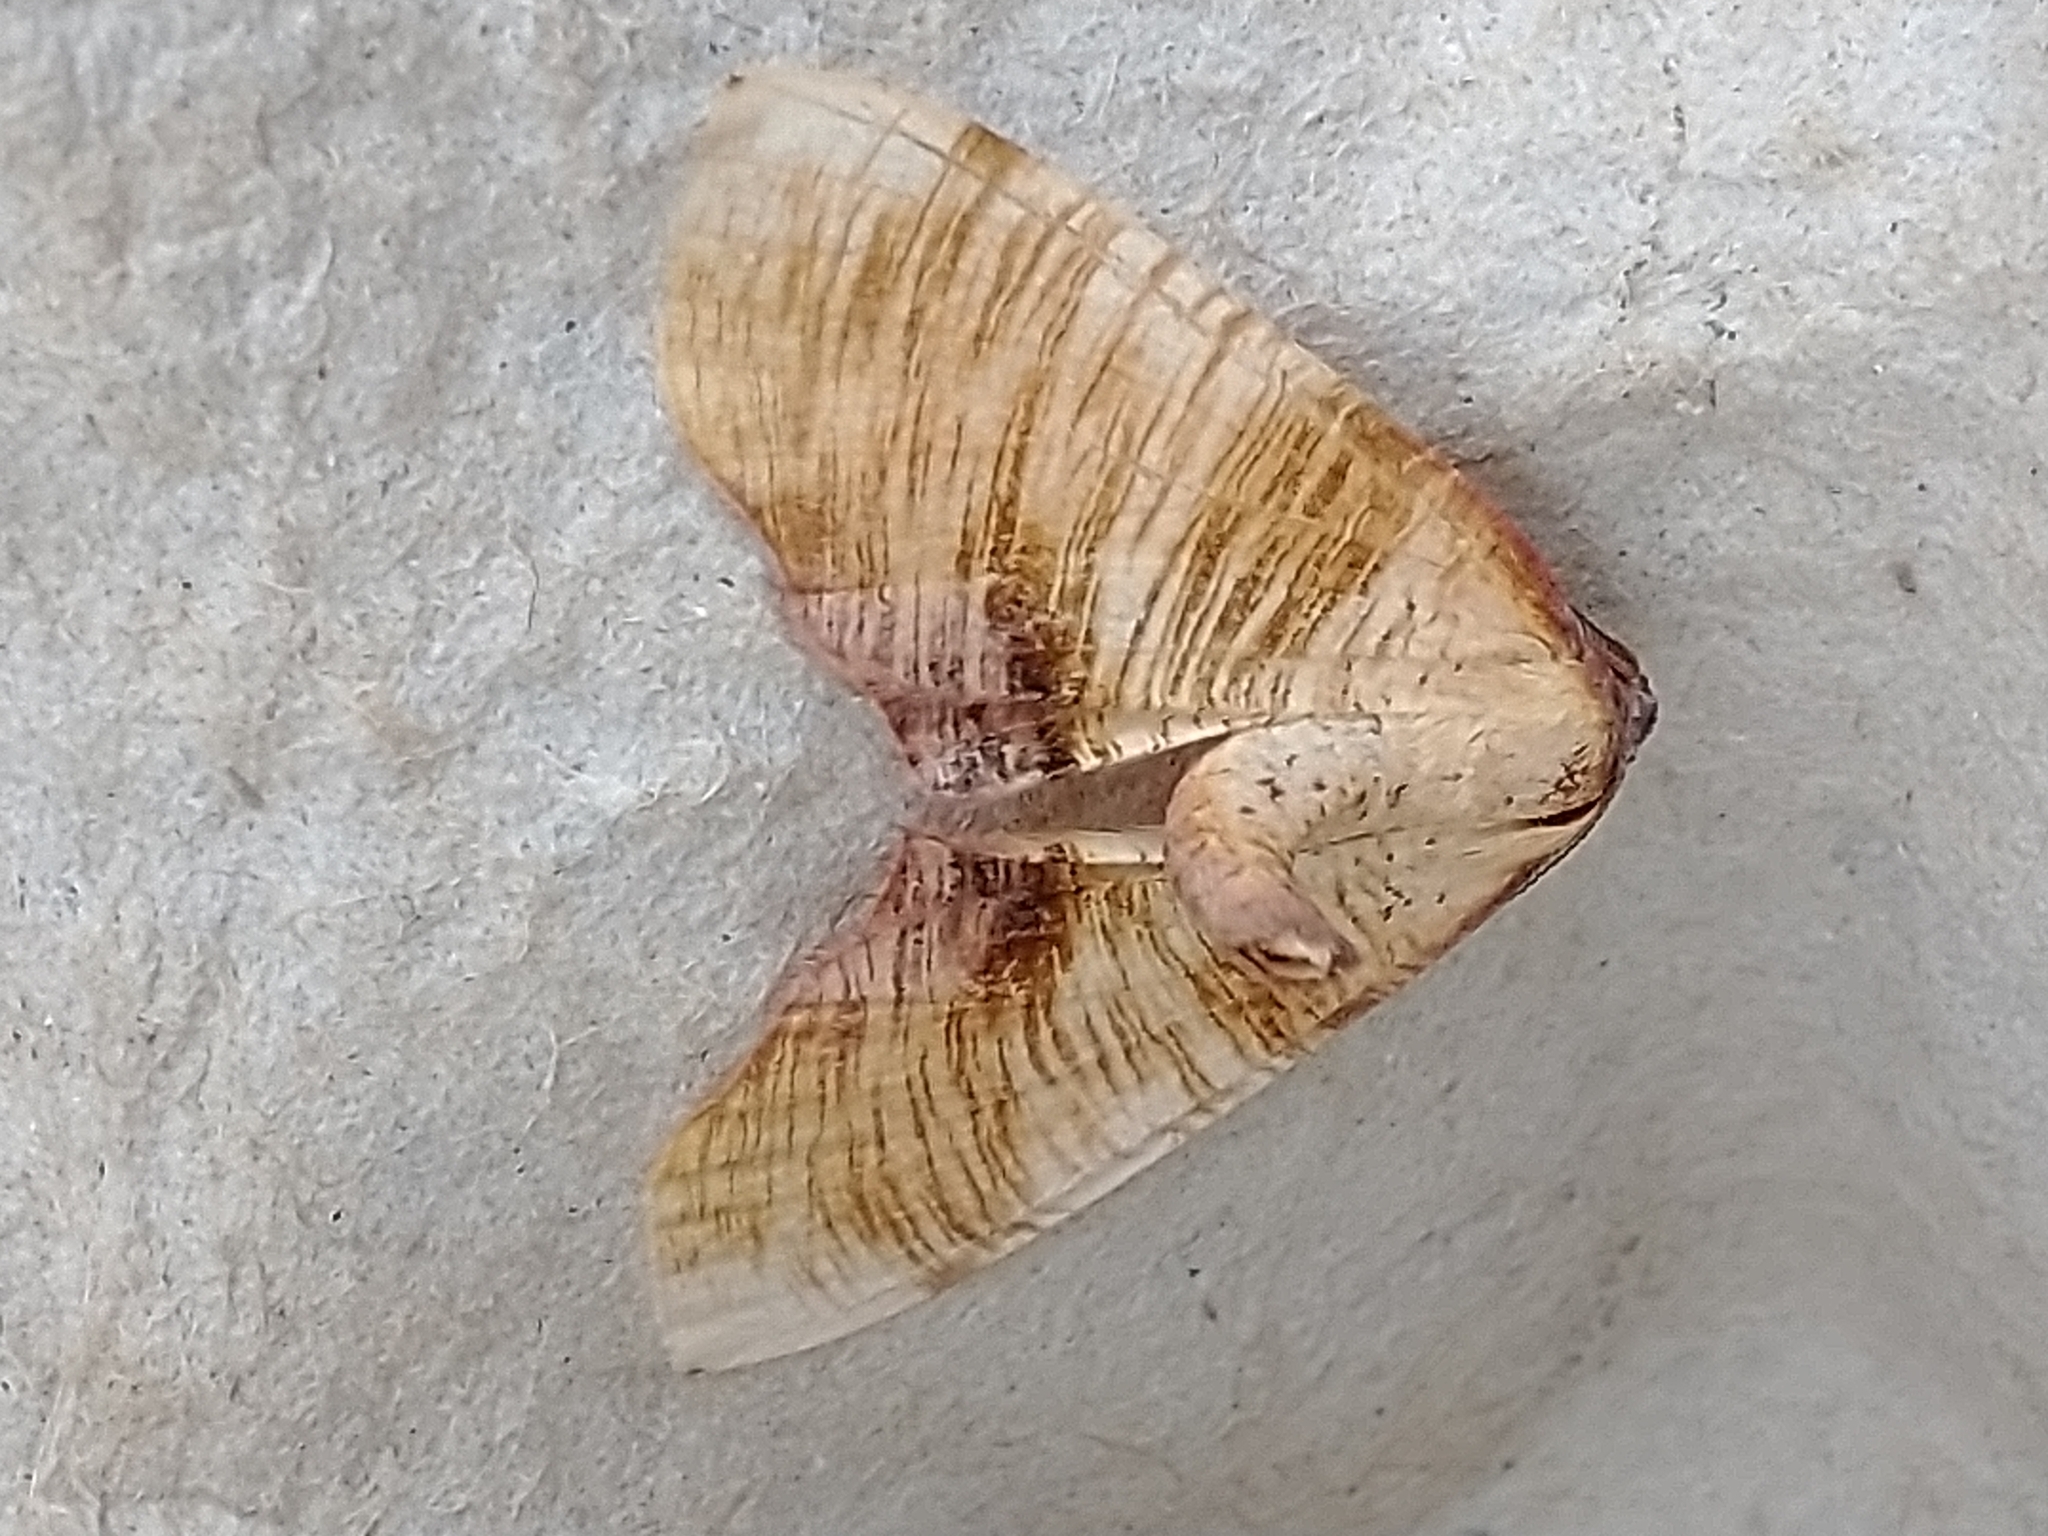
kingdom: Animalia
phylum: Arthropoda
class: Insecta
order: Lepidoptera
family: Geometridae
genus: Plagodis
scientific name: Plagodis dolabraria
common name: Scorched wing
